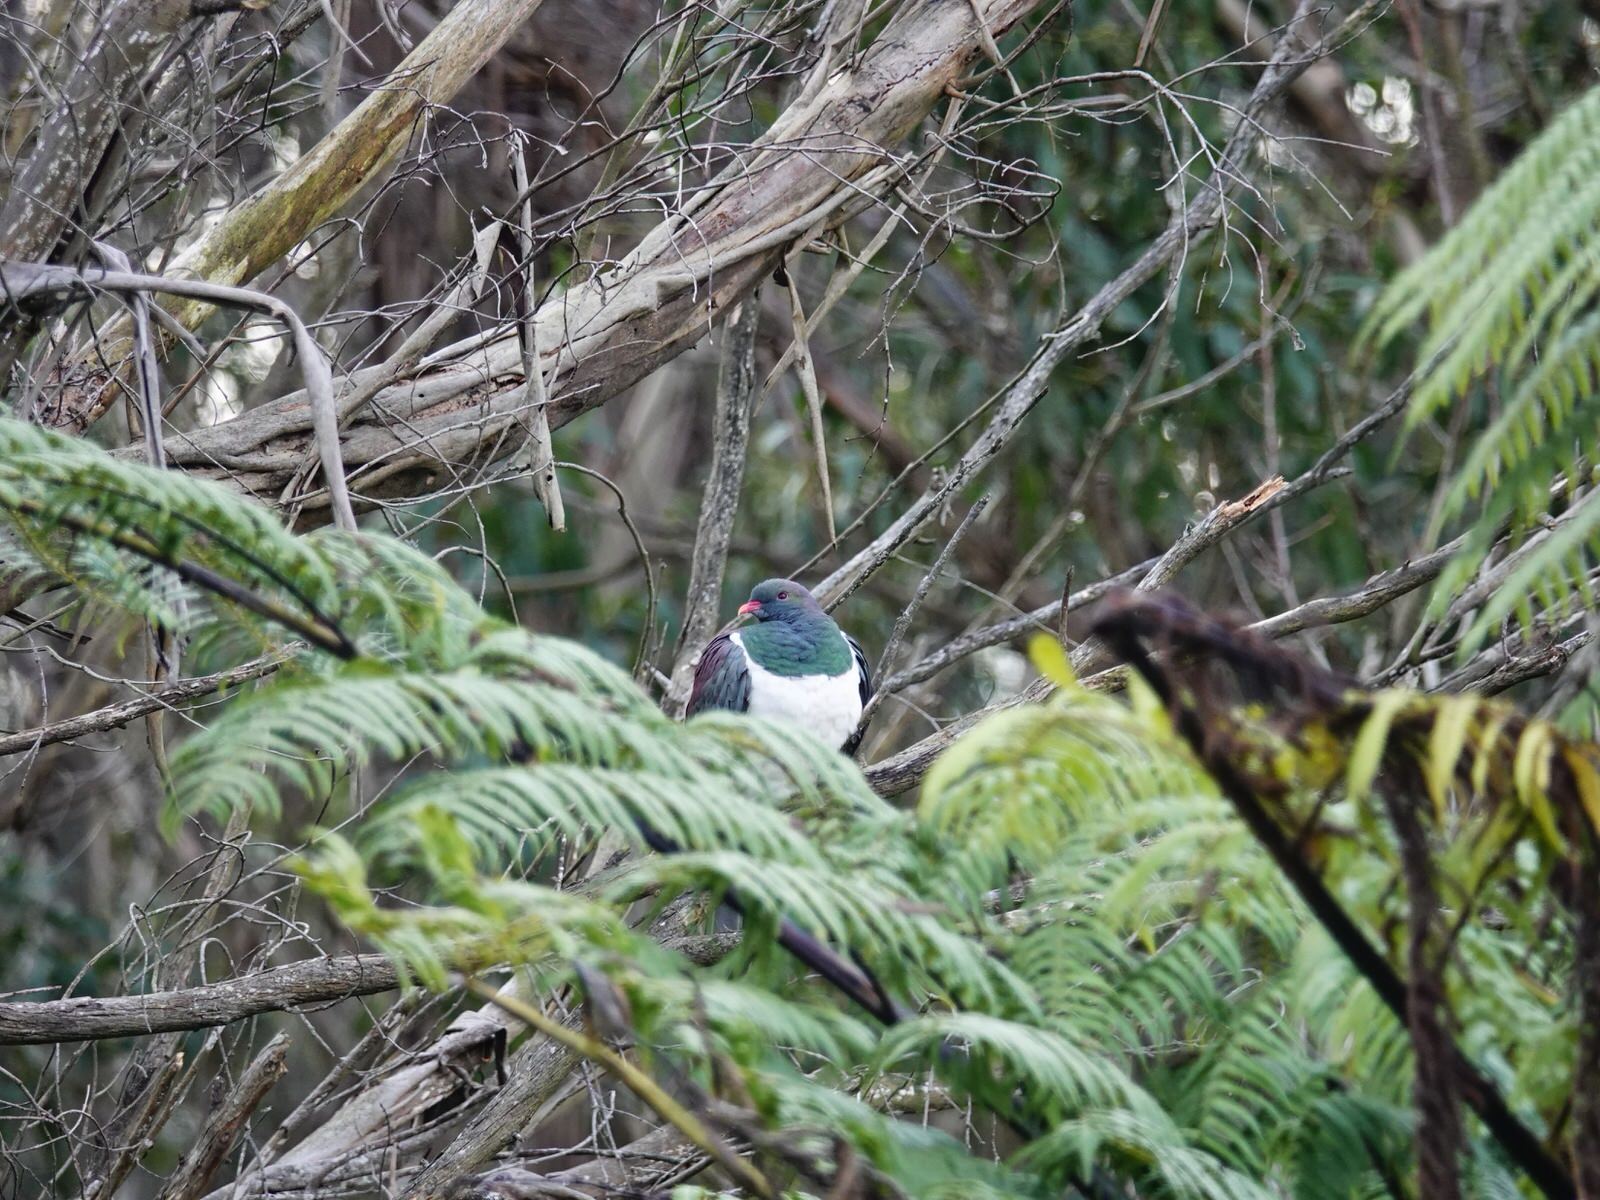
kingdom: Animalia
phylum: Chordata
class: Aves
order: Columbiformes
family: Columbidae
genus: Hemiphaga
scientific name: Hemiphaga novaeseelandiae
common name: New zealand pigeon
